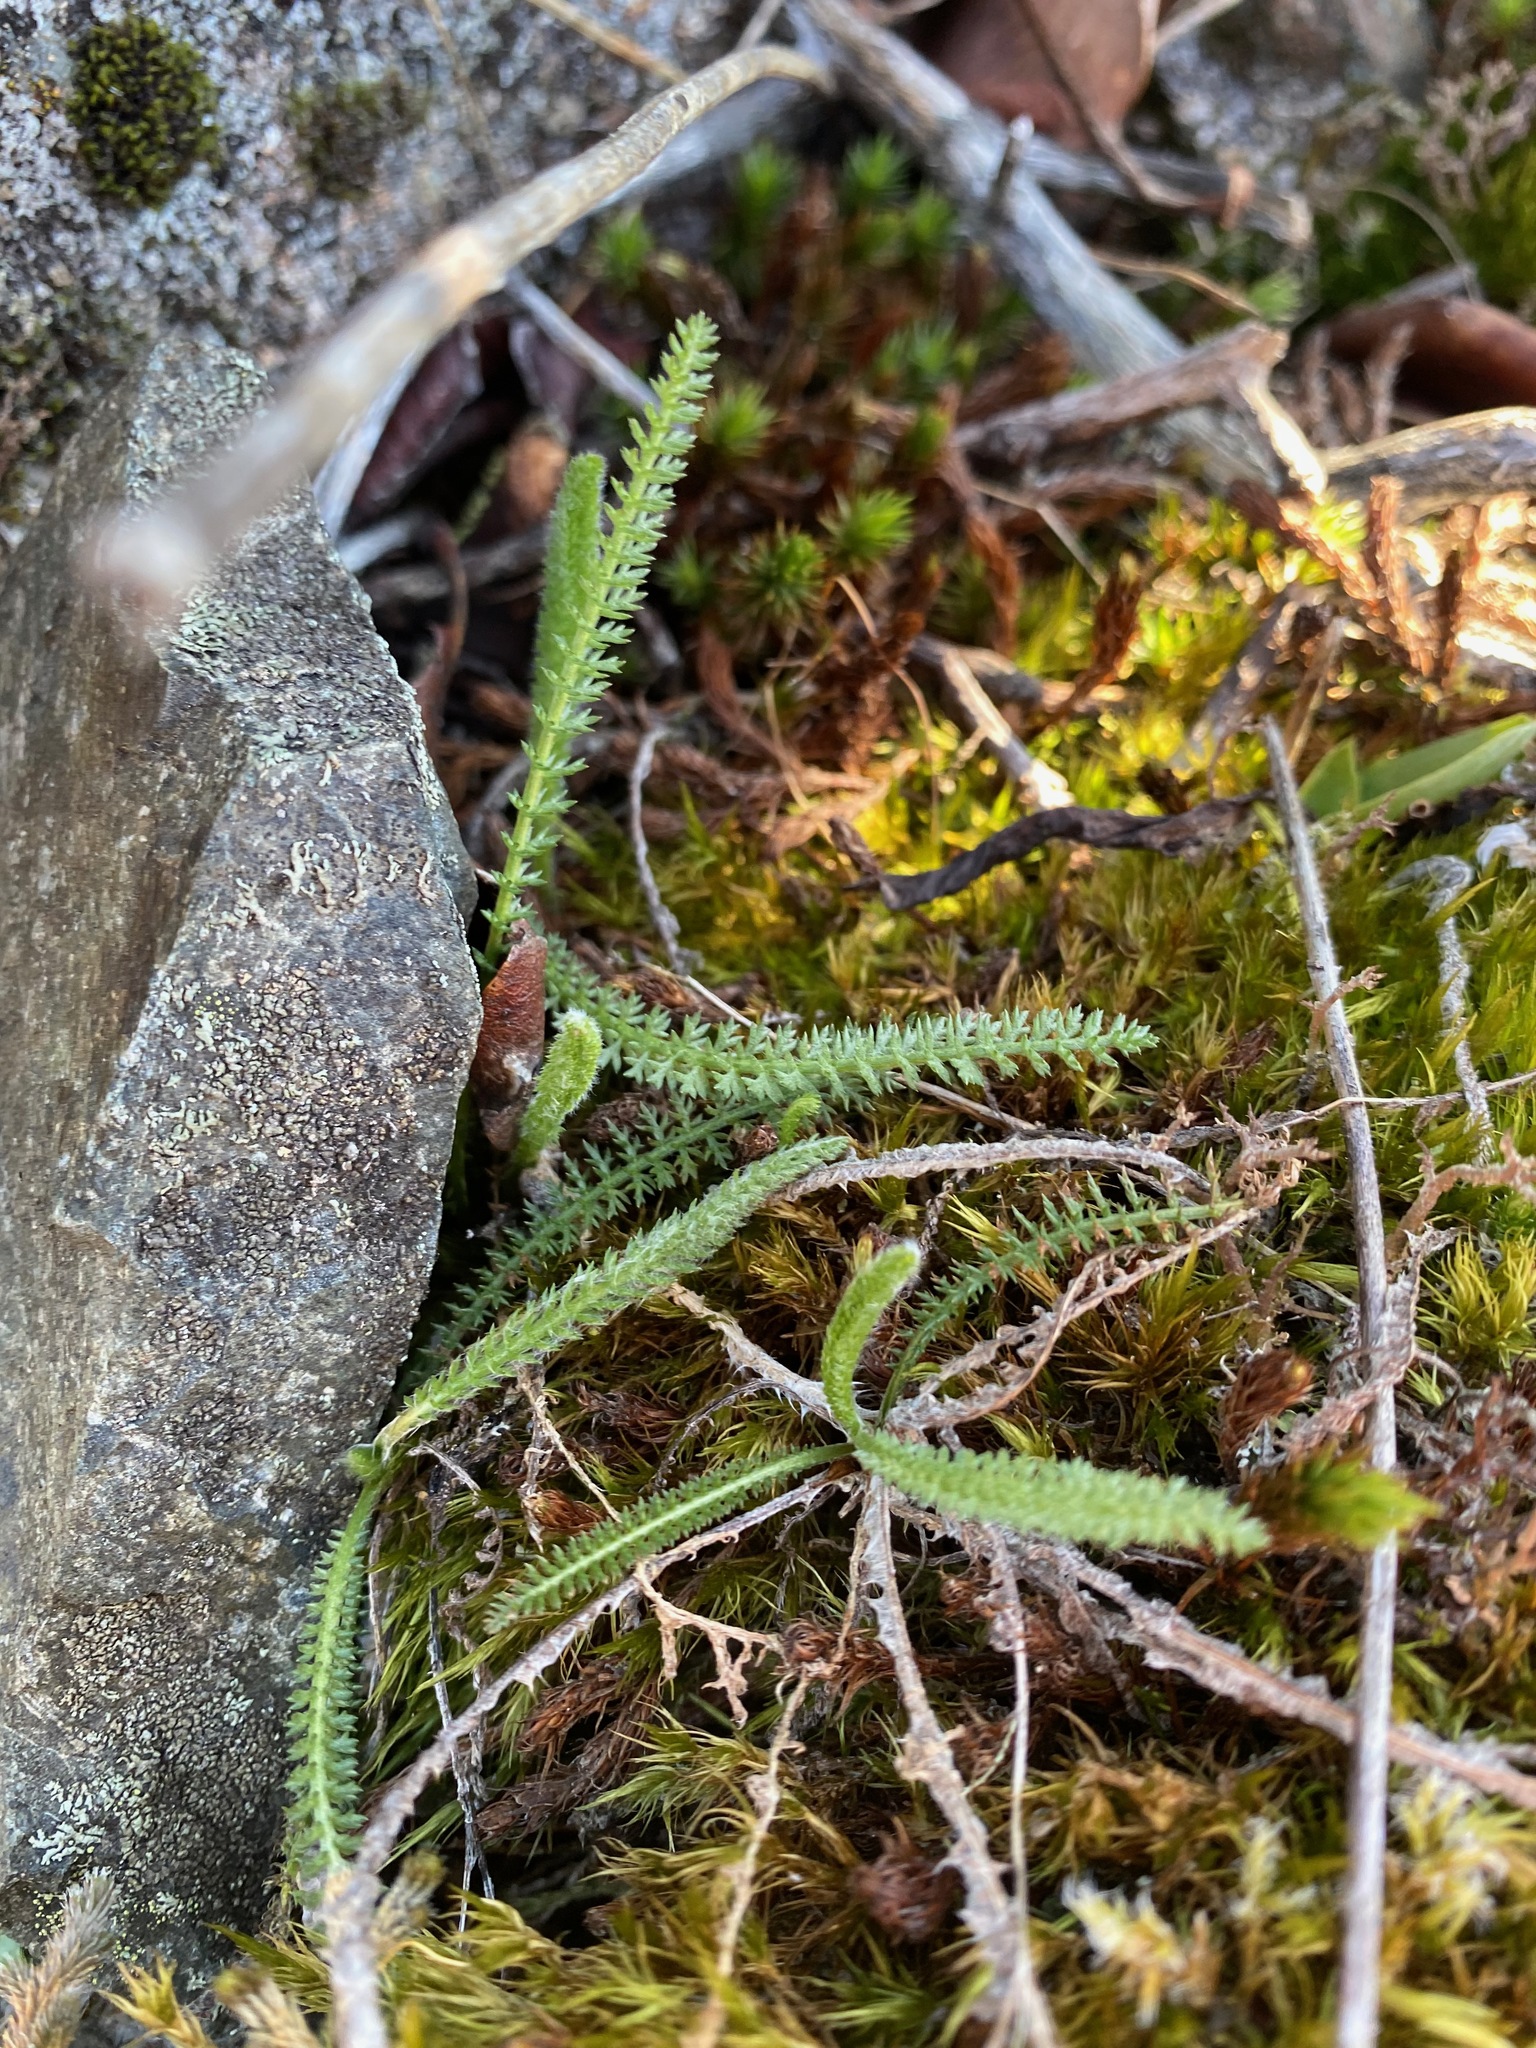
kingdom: Plantae
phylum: Tracheophyta
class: Magnoliopsida
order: Asterales
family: Asteraceae
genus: Achillea
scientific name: Achillea millefolium
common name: Yarrow
